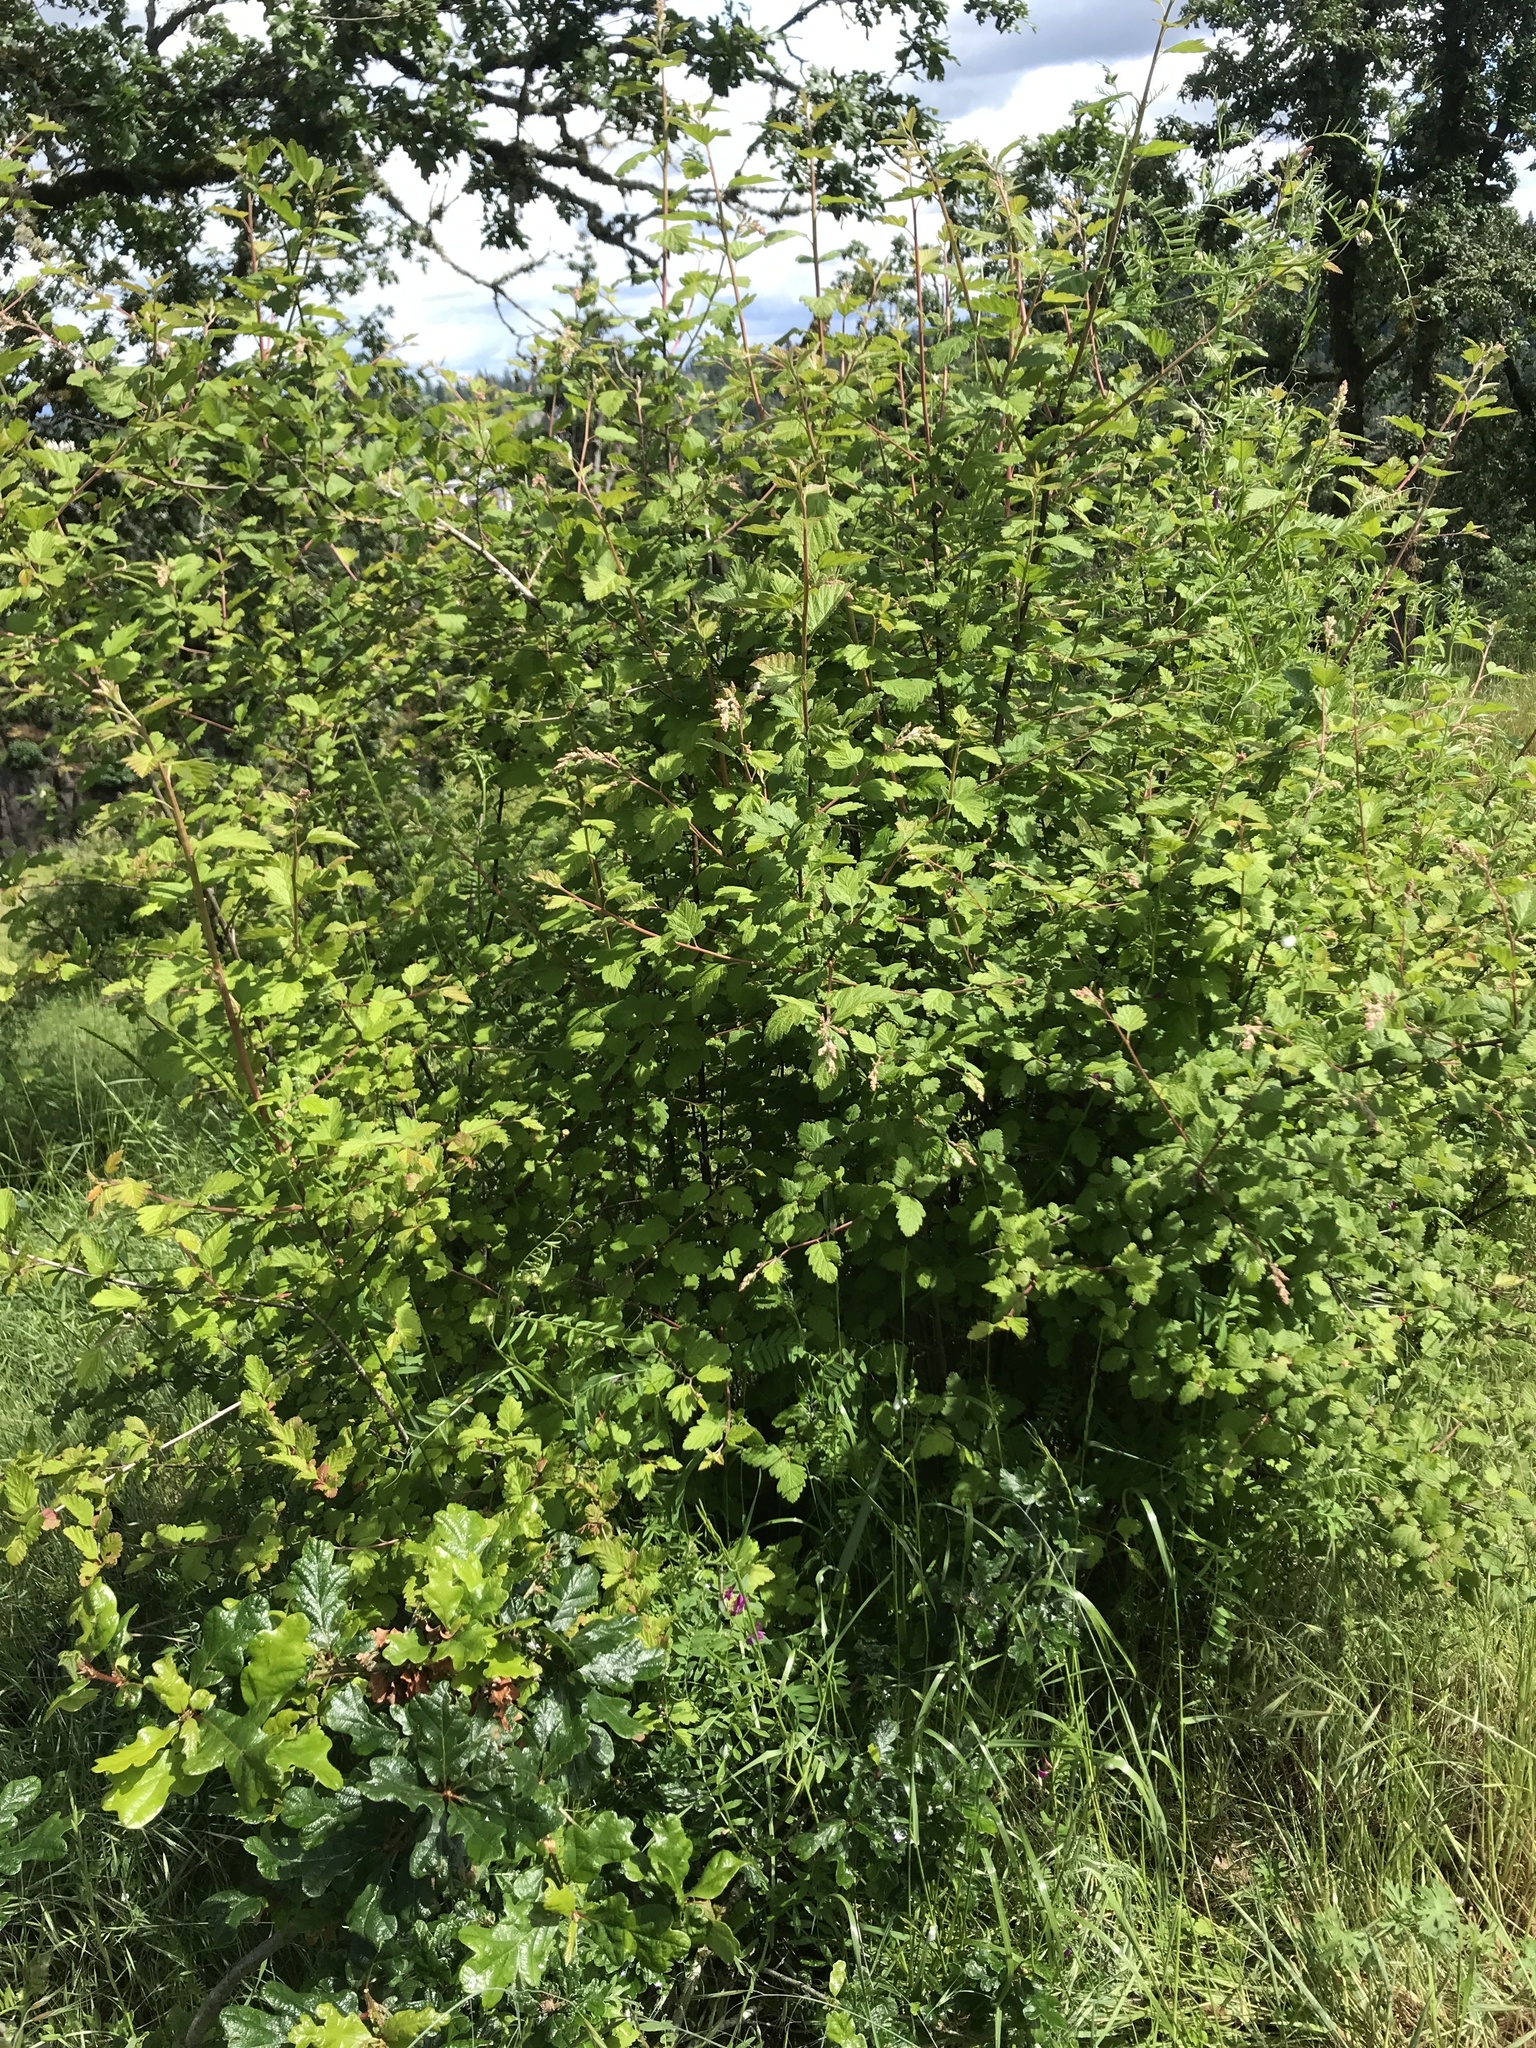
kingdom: Plantae
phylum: Tracheophyta
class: Magnoliopsida
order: Rosales
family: Rosaceae
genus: Holodiscus
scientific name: Holodiscus discolor
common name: Oceanspray
